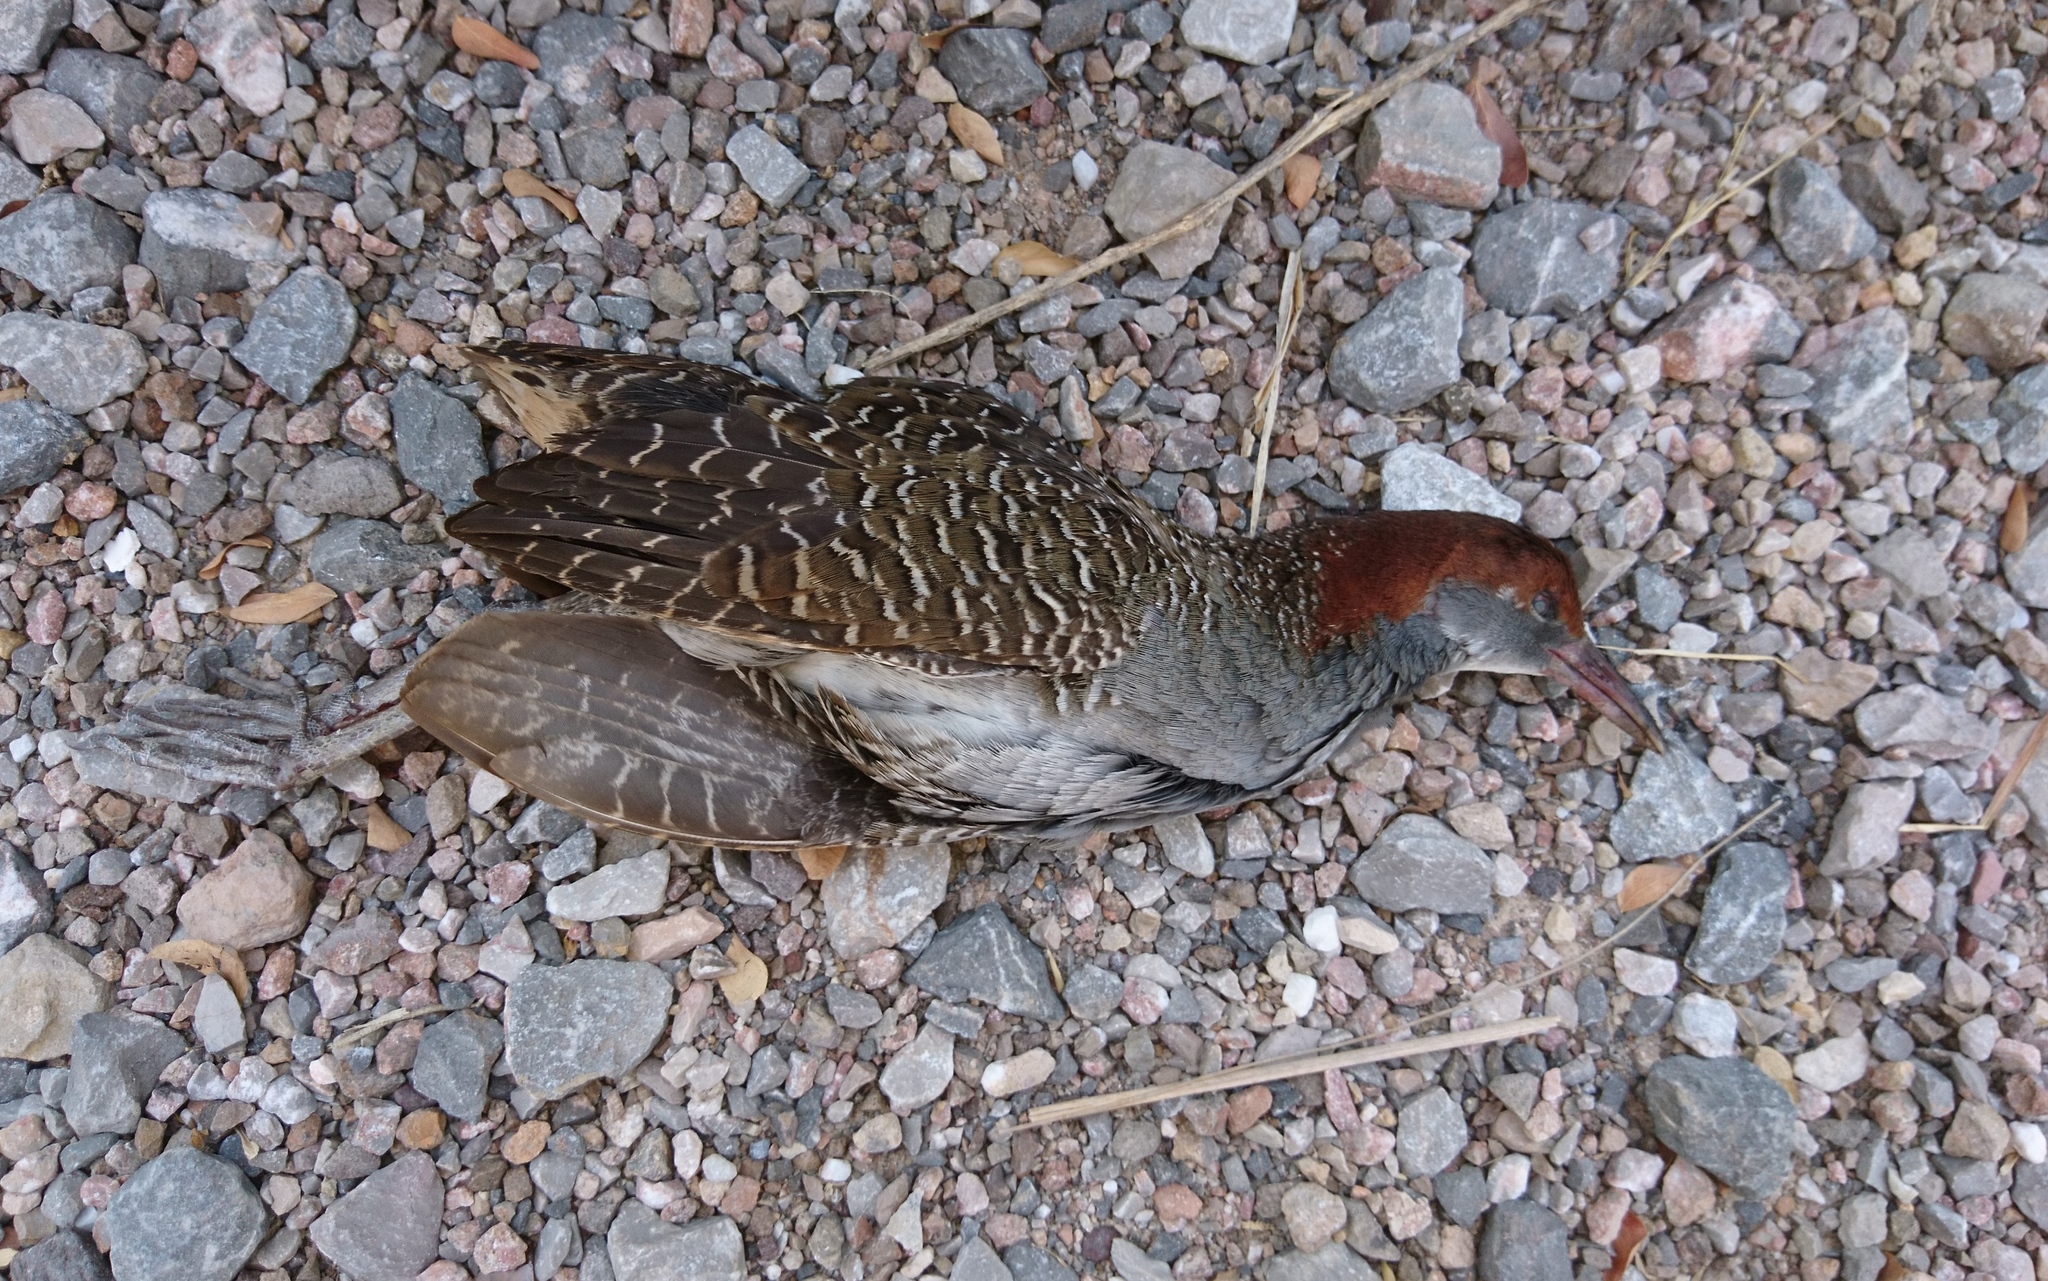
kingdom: Animalia
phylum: Chordata
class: Aves
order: Gruiformes
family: Rallidae
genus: Gallirallus
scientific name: Gallirallus striatus
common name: Slaty-breasted rail
